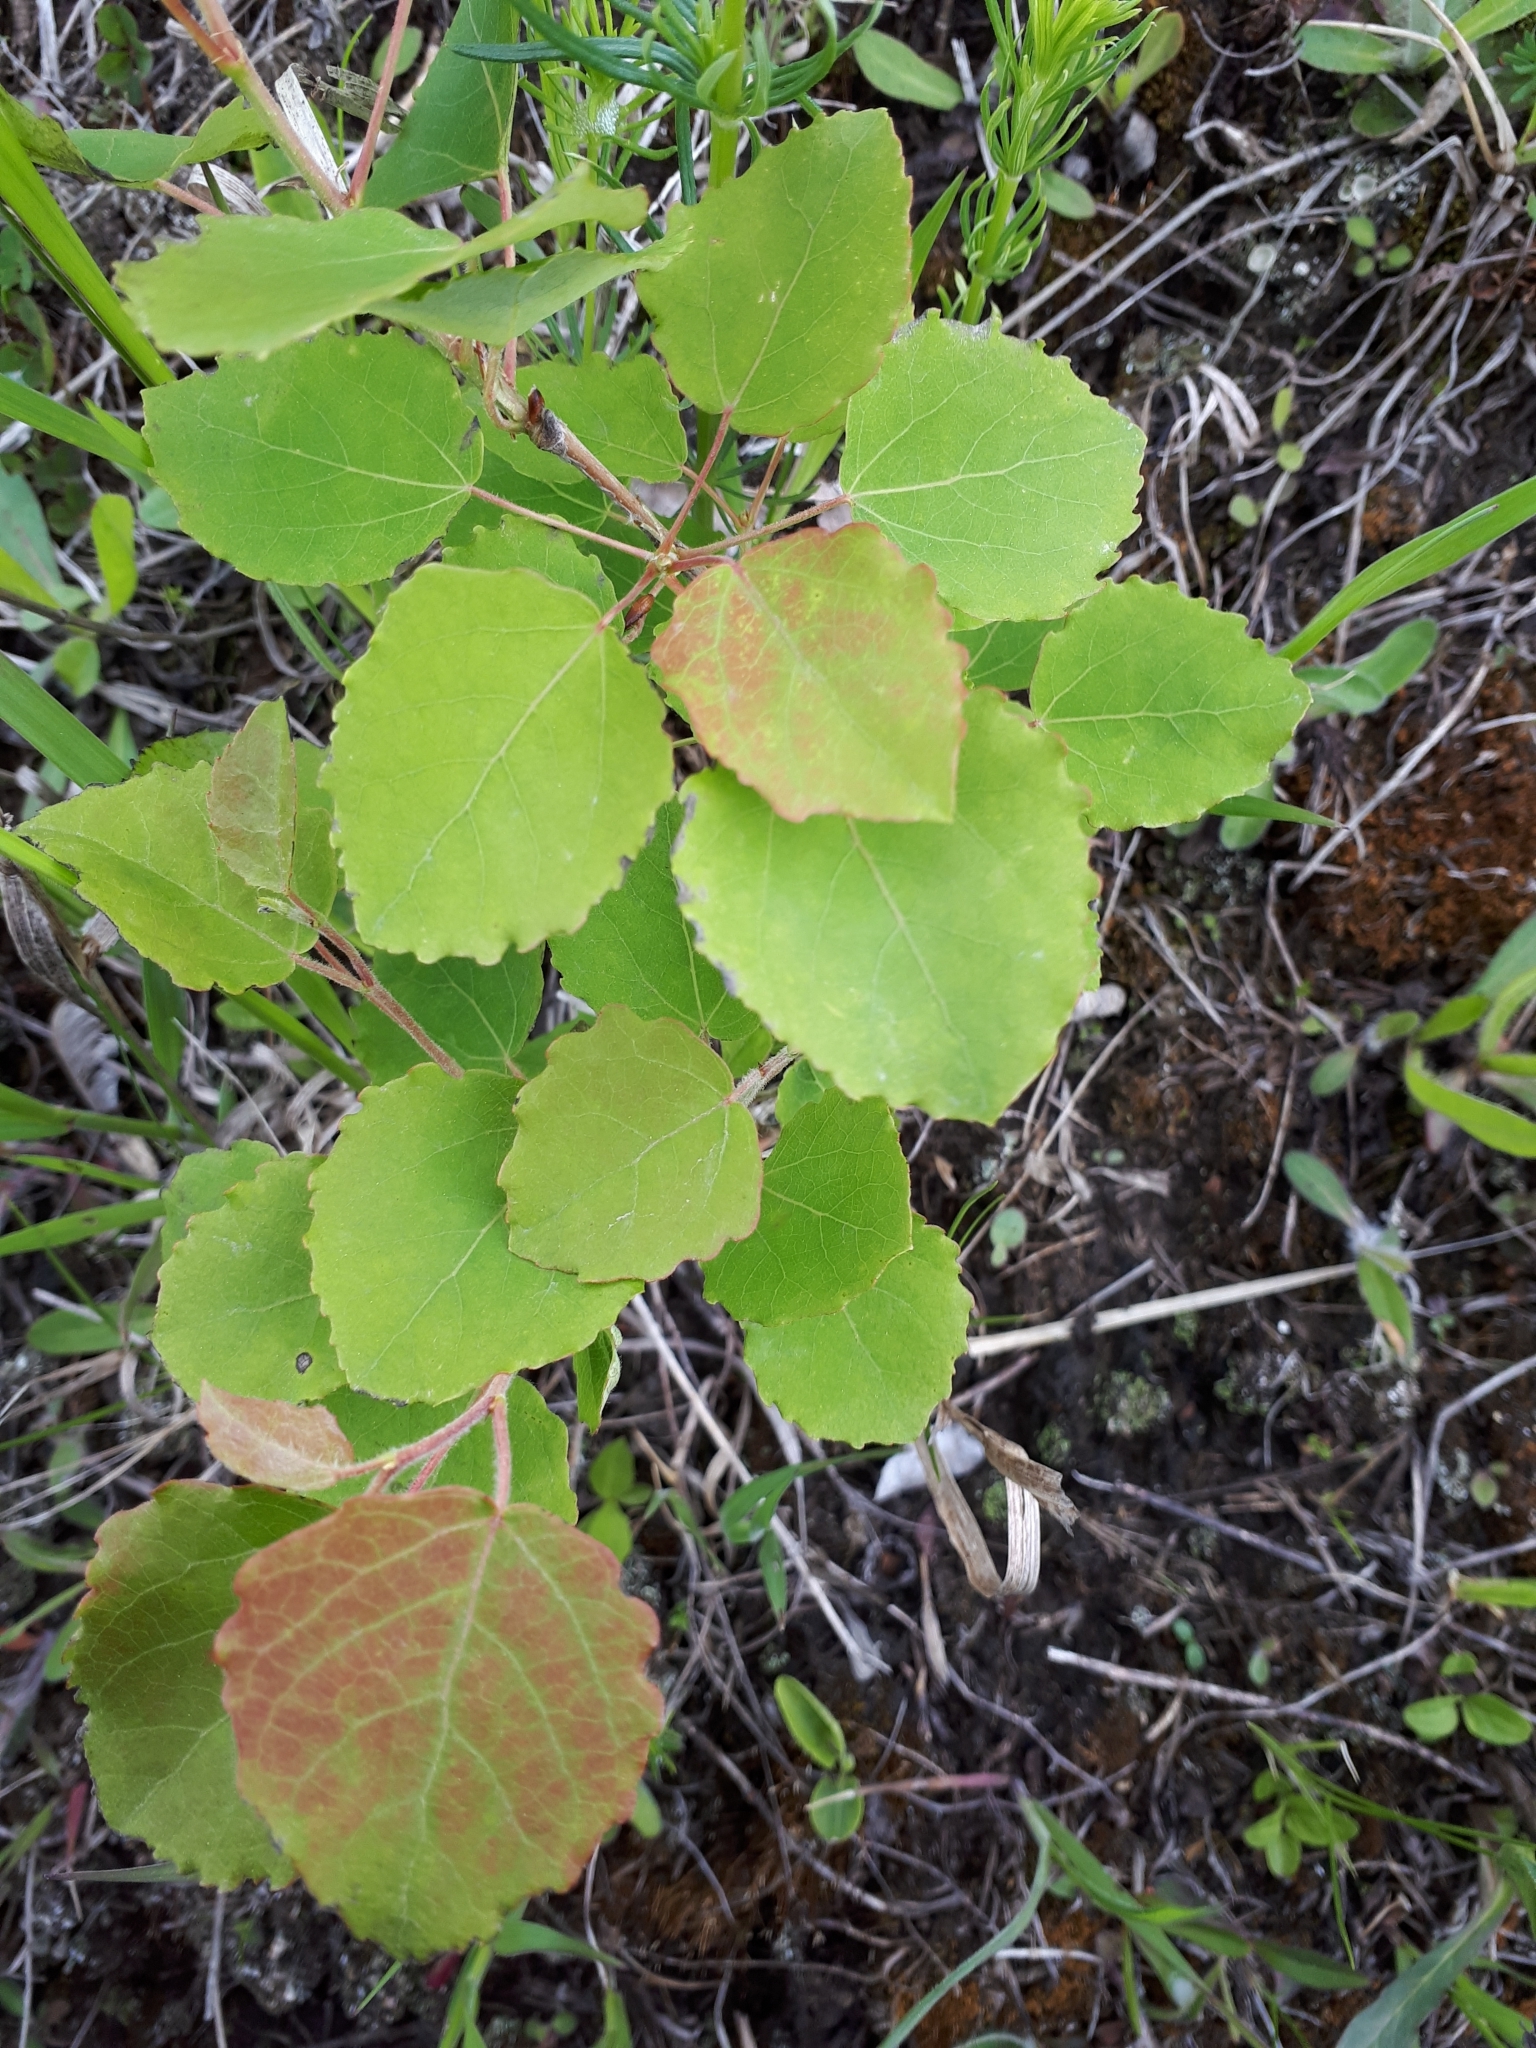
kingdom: Plantae
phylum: Tracheophyta
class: Magnoliopsida
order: Malpighiales
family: Salicaceae
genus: Populus
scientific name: Populus tremula
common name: European aspen
